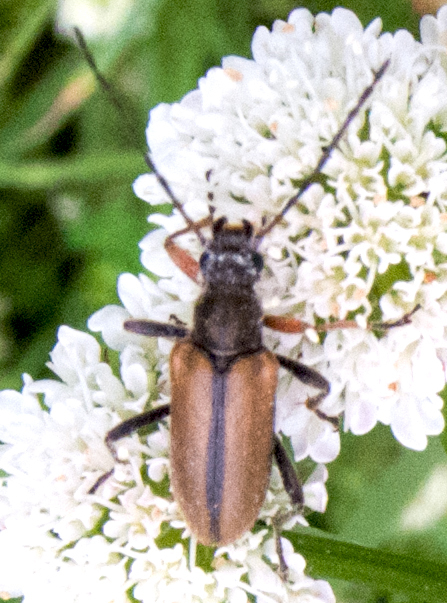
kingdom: Animalia
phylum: Arthropoda
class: Insecta
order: Coleoptera
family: Cerambycidae
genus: Cortodera
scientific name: Cortodera flavimana
